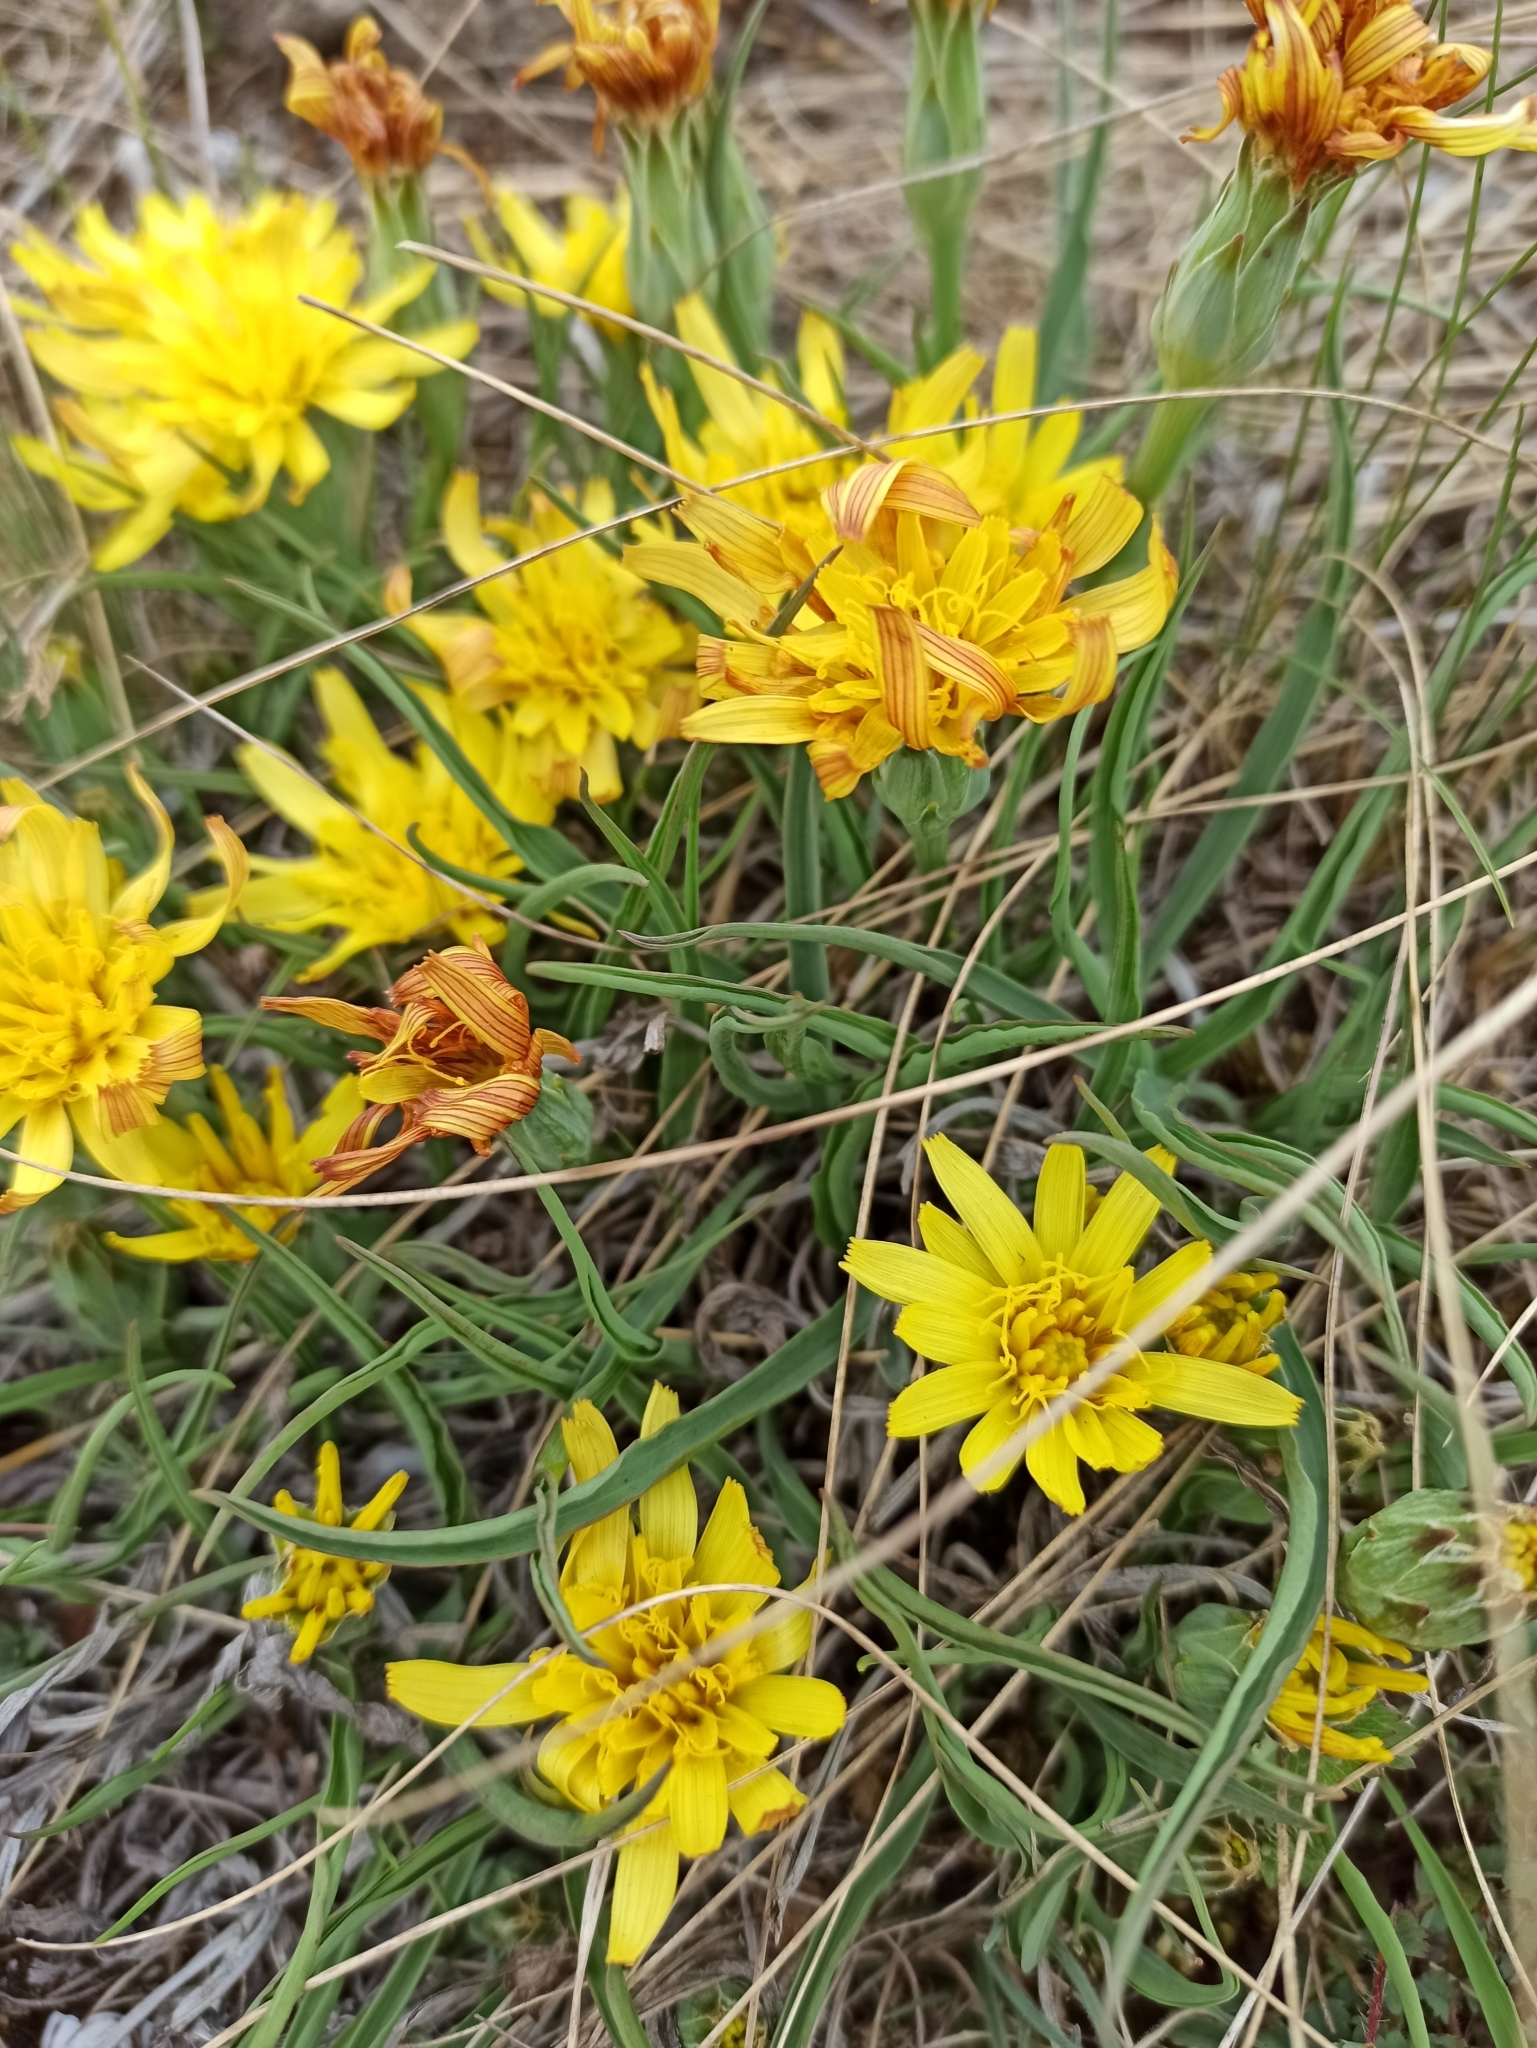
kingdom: Plantae
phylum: Tracheophyta
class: Magnoliopsida
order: Asterales
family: Asteraceae
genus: Takhtajaniantha
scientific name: Takhtajaniantha austriaca
